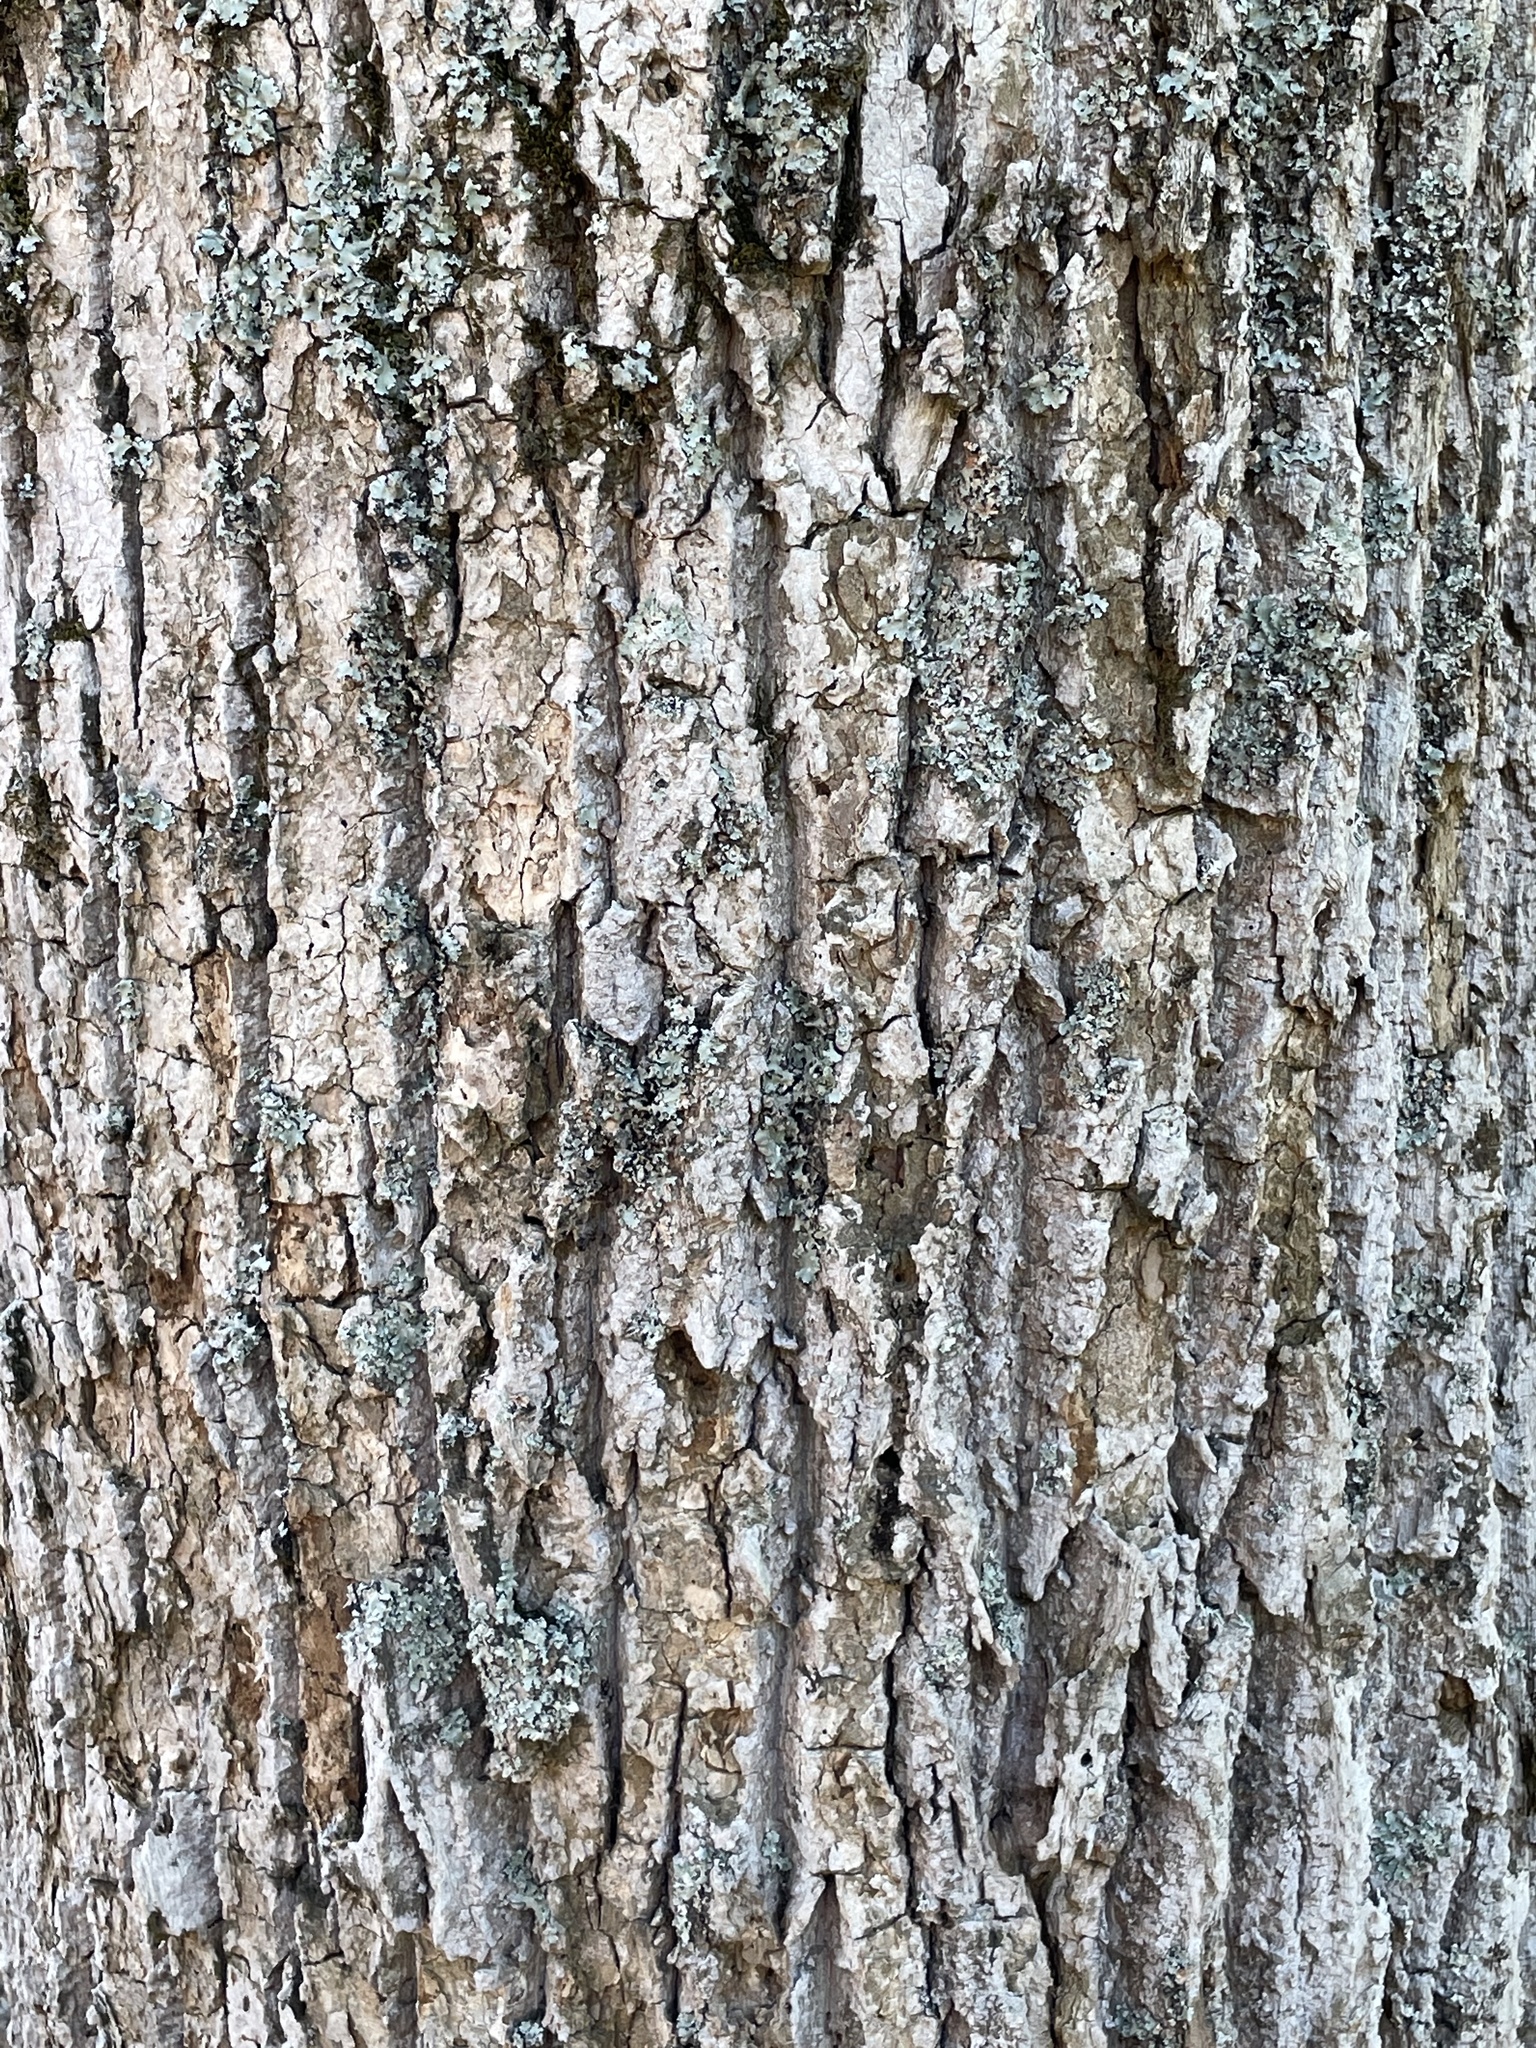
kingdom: Plantae
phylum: Tracheophyta
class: Magnoliopsida
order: Magnoliales
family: Magnoliaceae
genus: Liriodendron
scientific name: Liriodendron tulipifera
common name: Tulip tree
